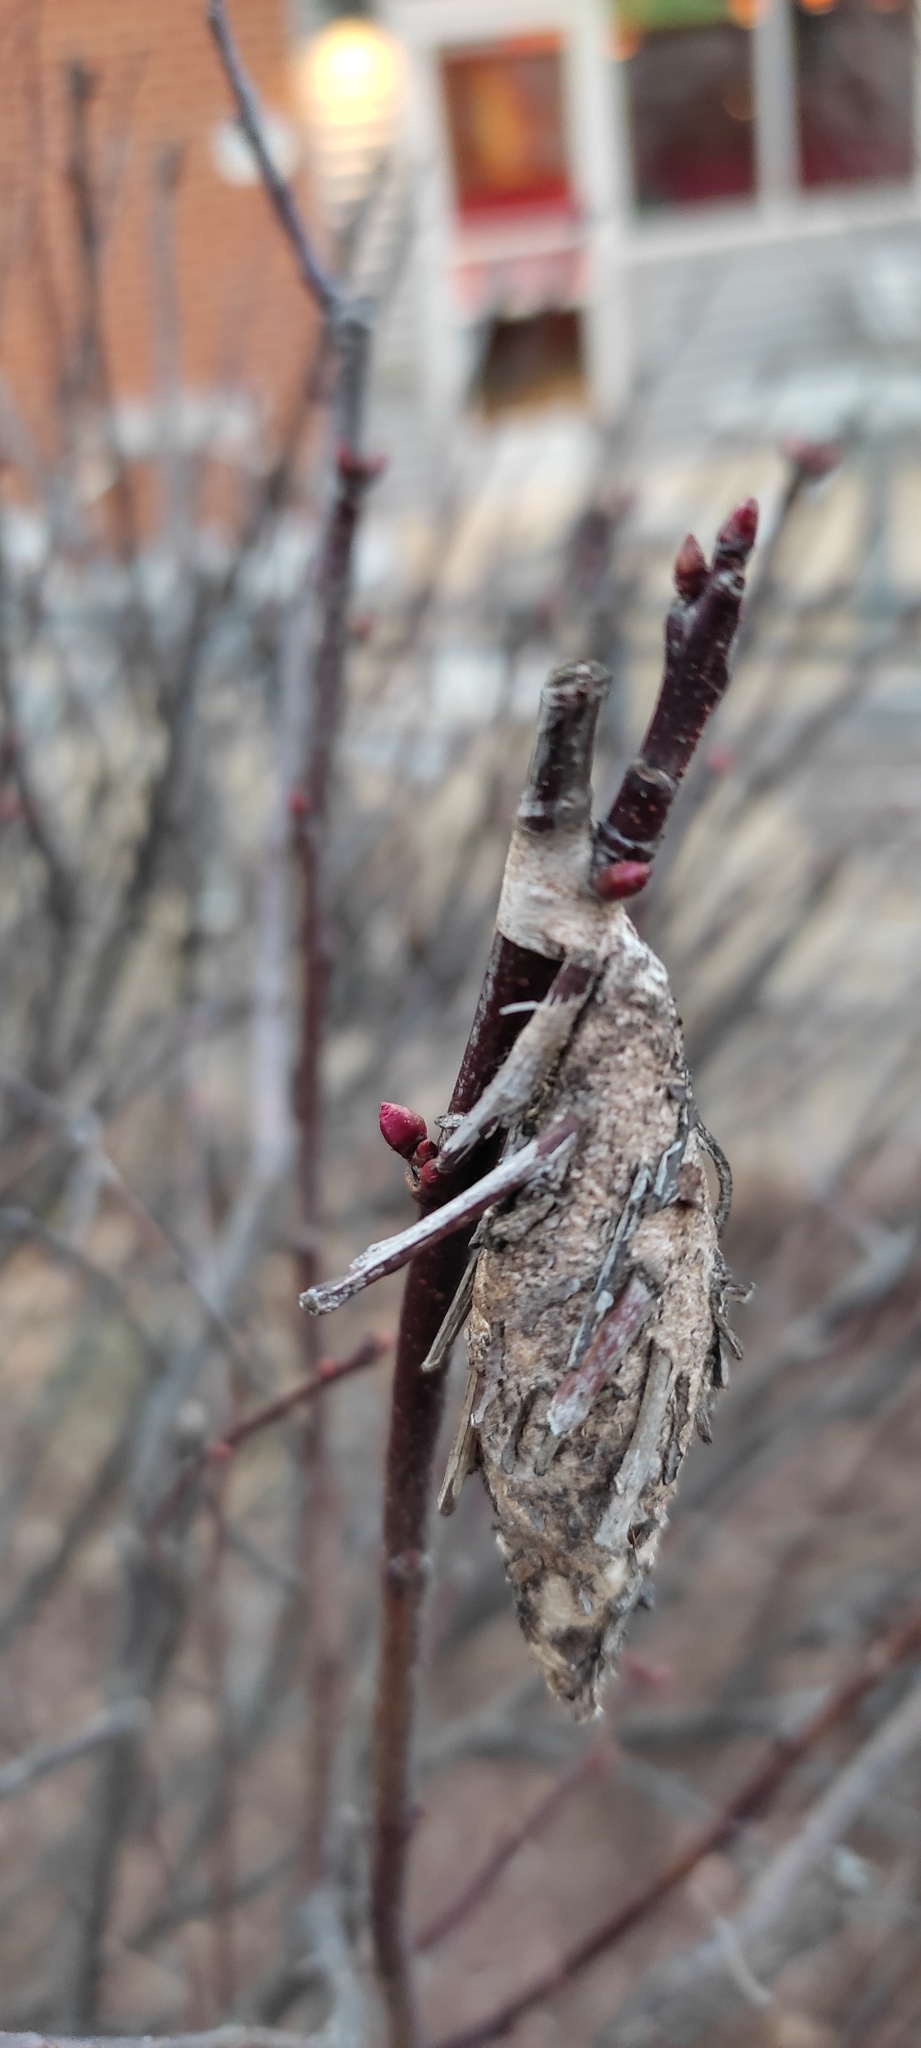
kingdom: Animalia
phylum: Arthropoda
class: Insecta
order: Lepidoptera
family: Psychidae
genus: Thyridopteryx
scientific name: Thyridopteryx ephemeraeformis
